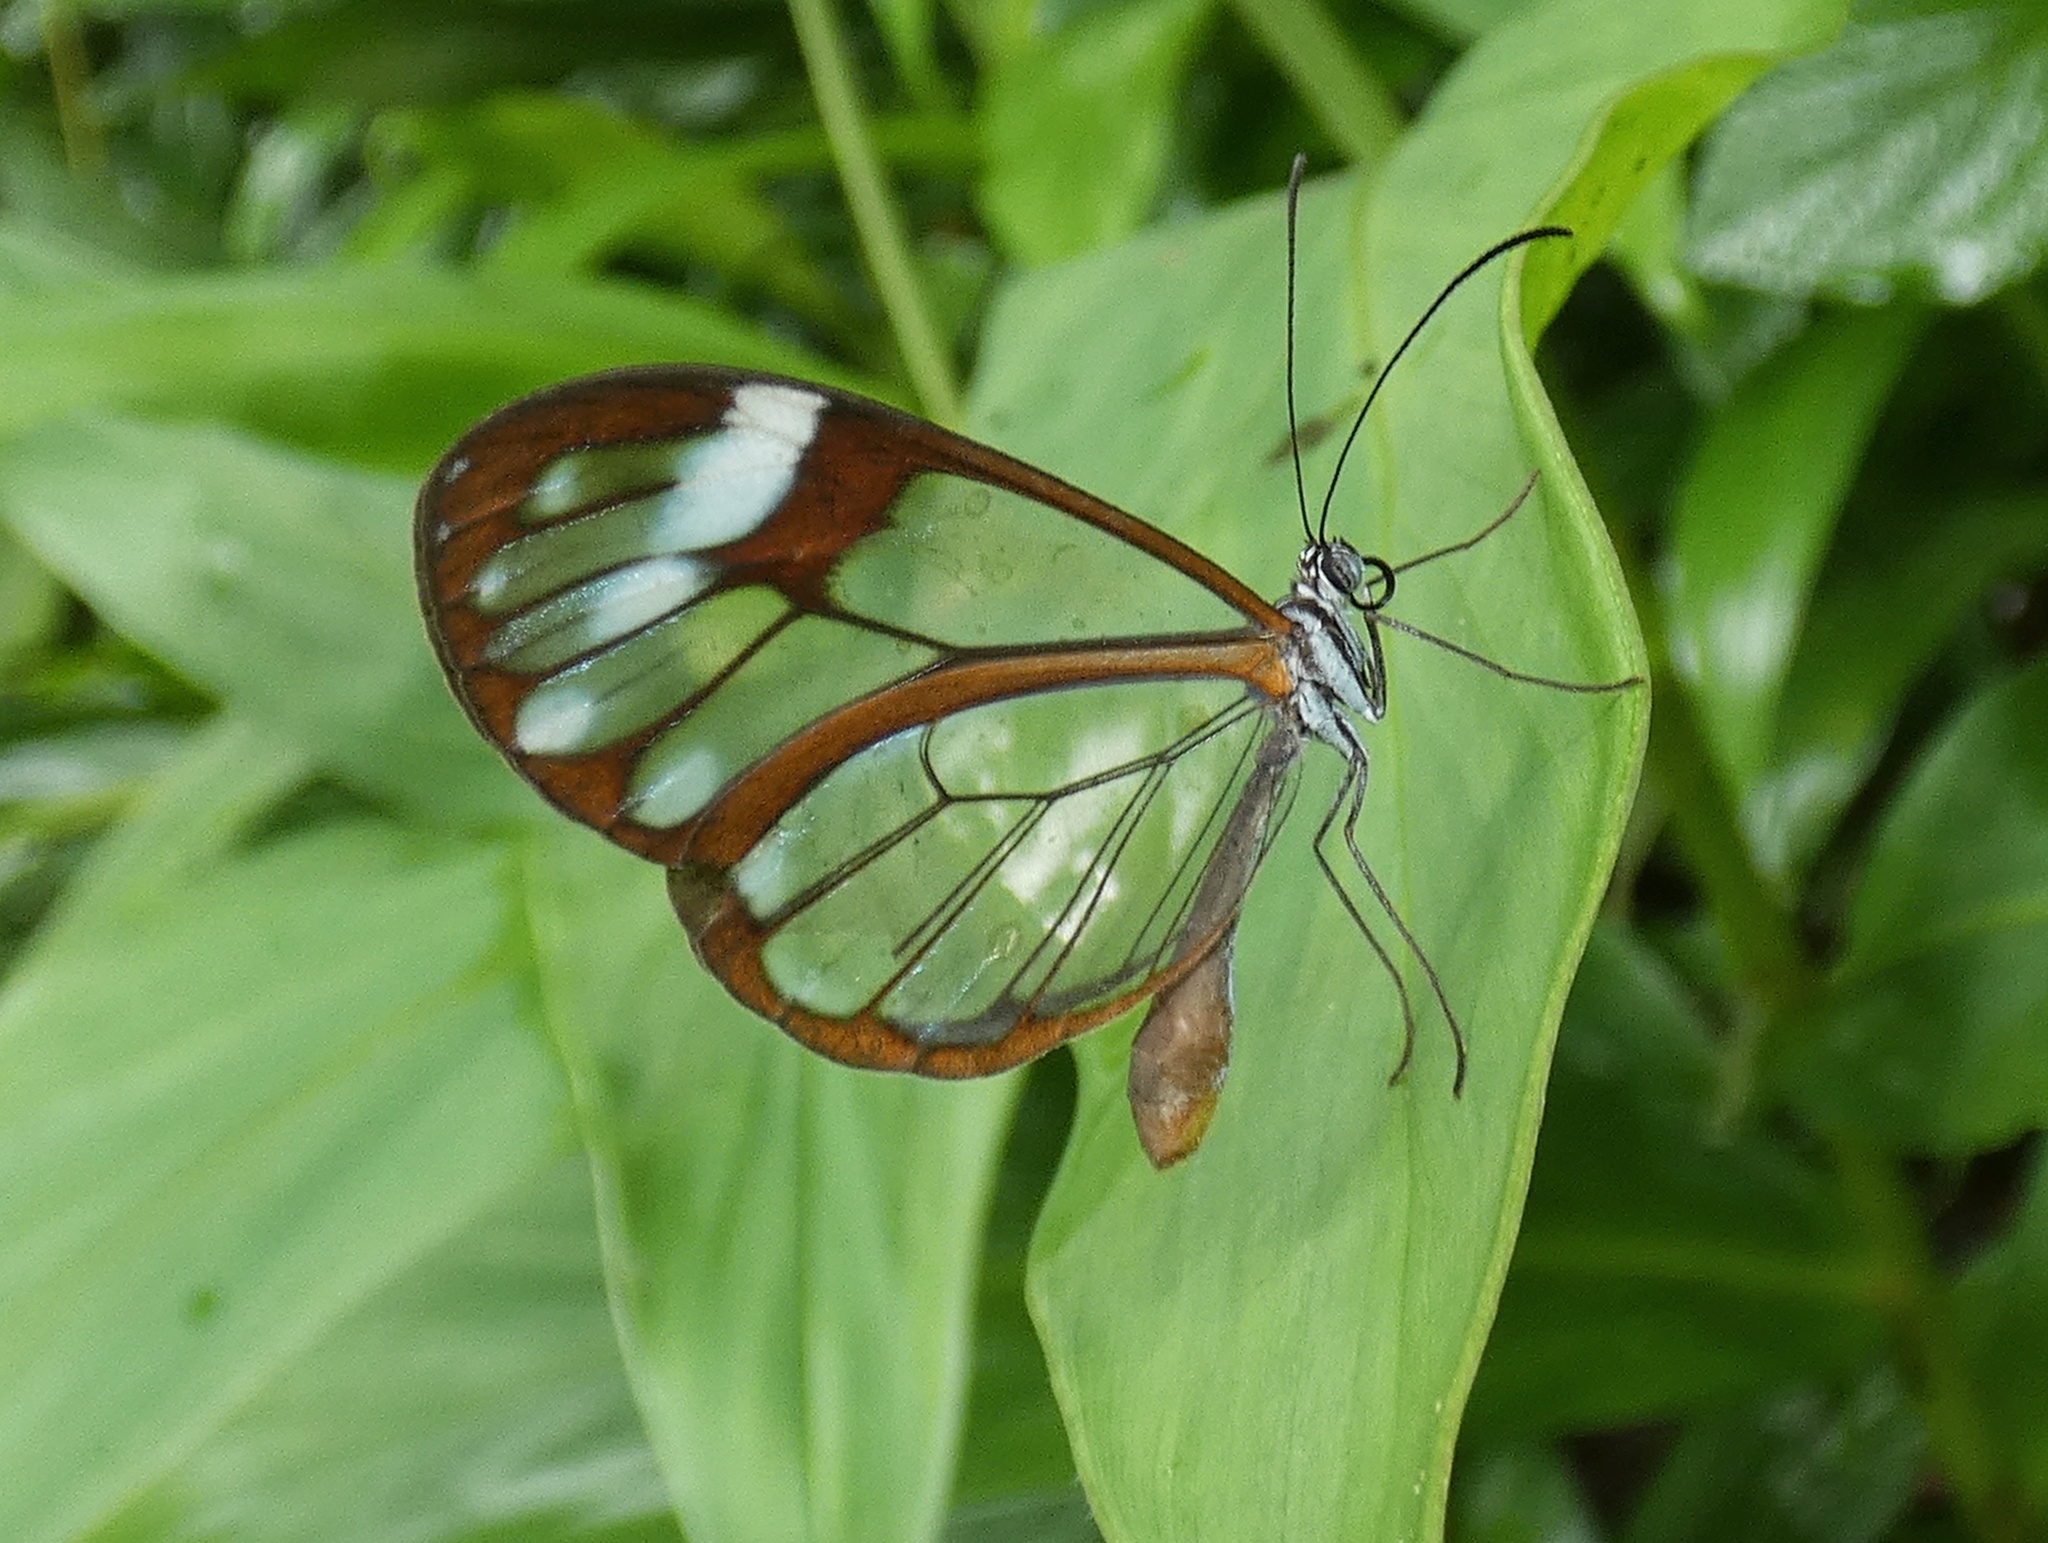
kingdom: Animalia
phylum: Arthropoda
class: Insecta
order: Lepidoptera
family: Nymphalidae
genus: Greta
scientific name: Greta andromica
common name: Andromica clearwing
